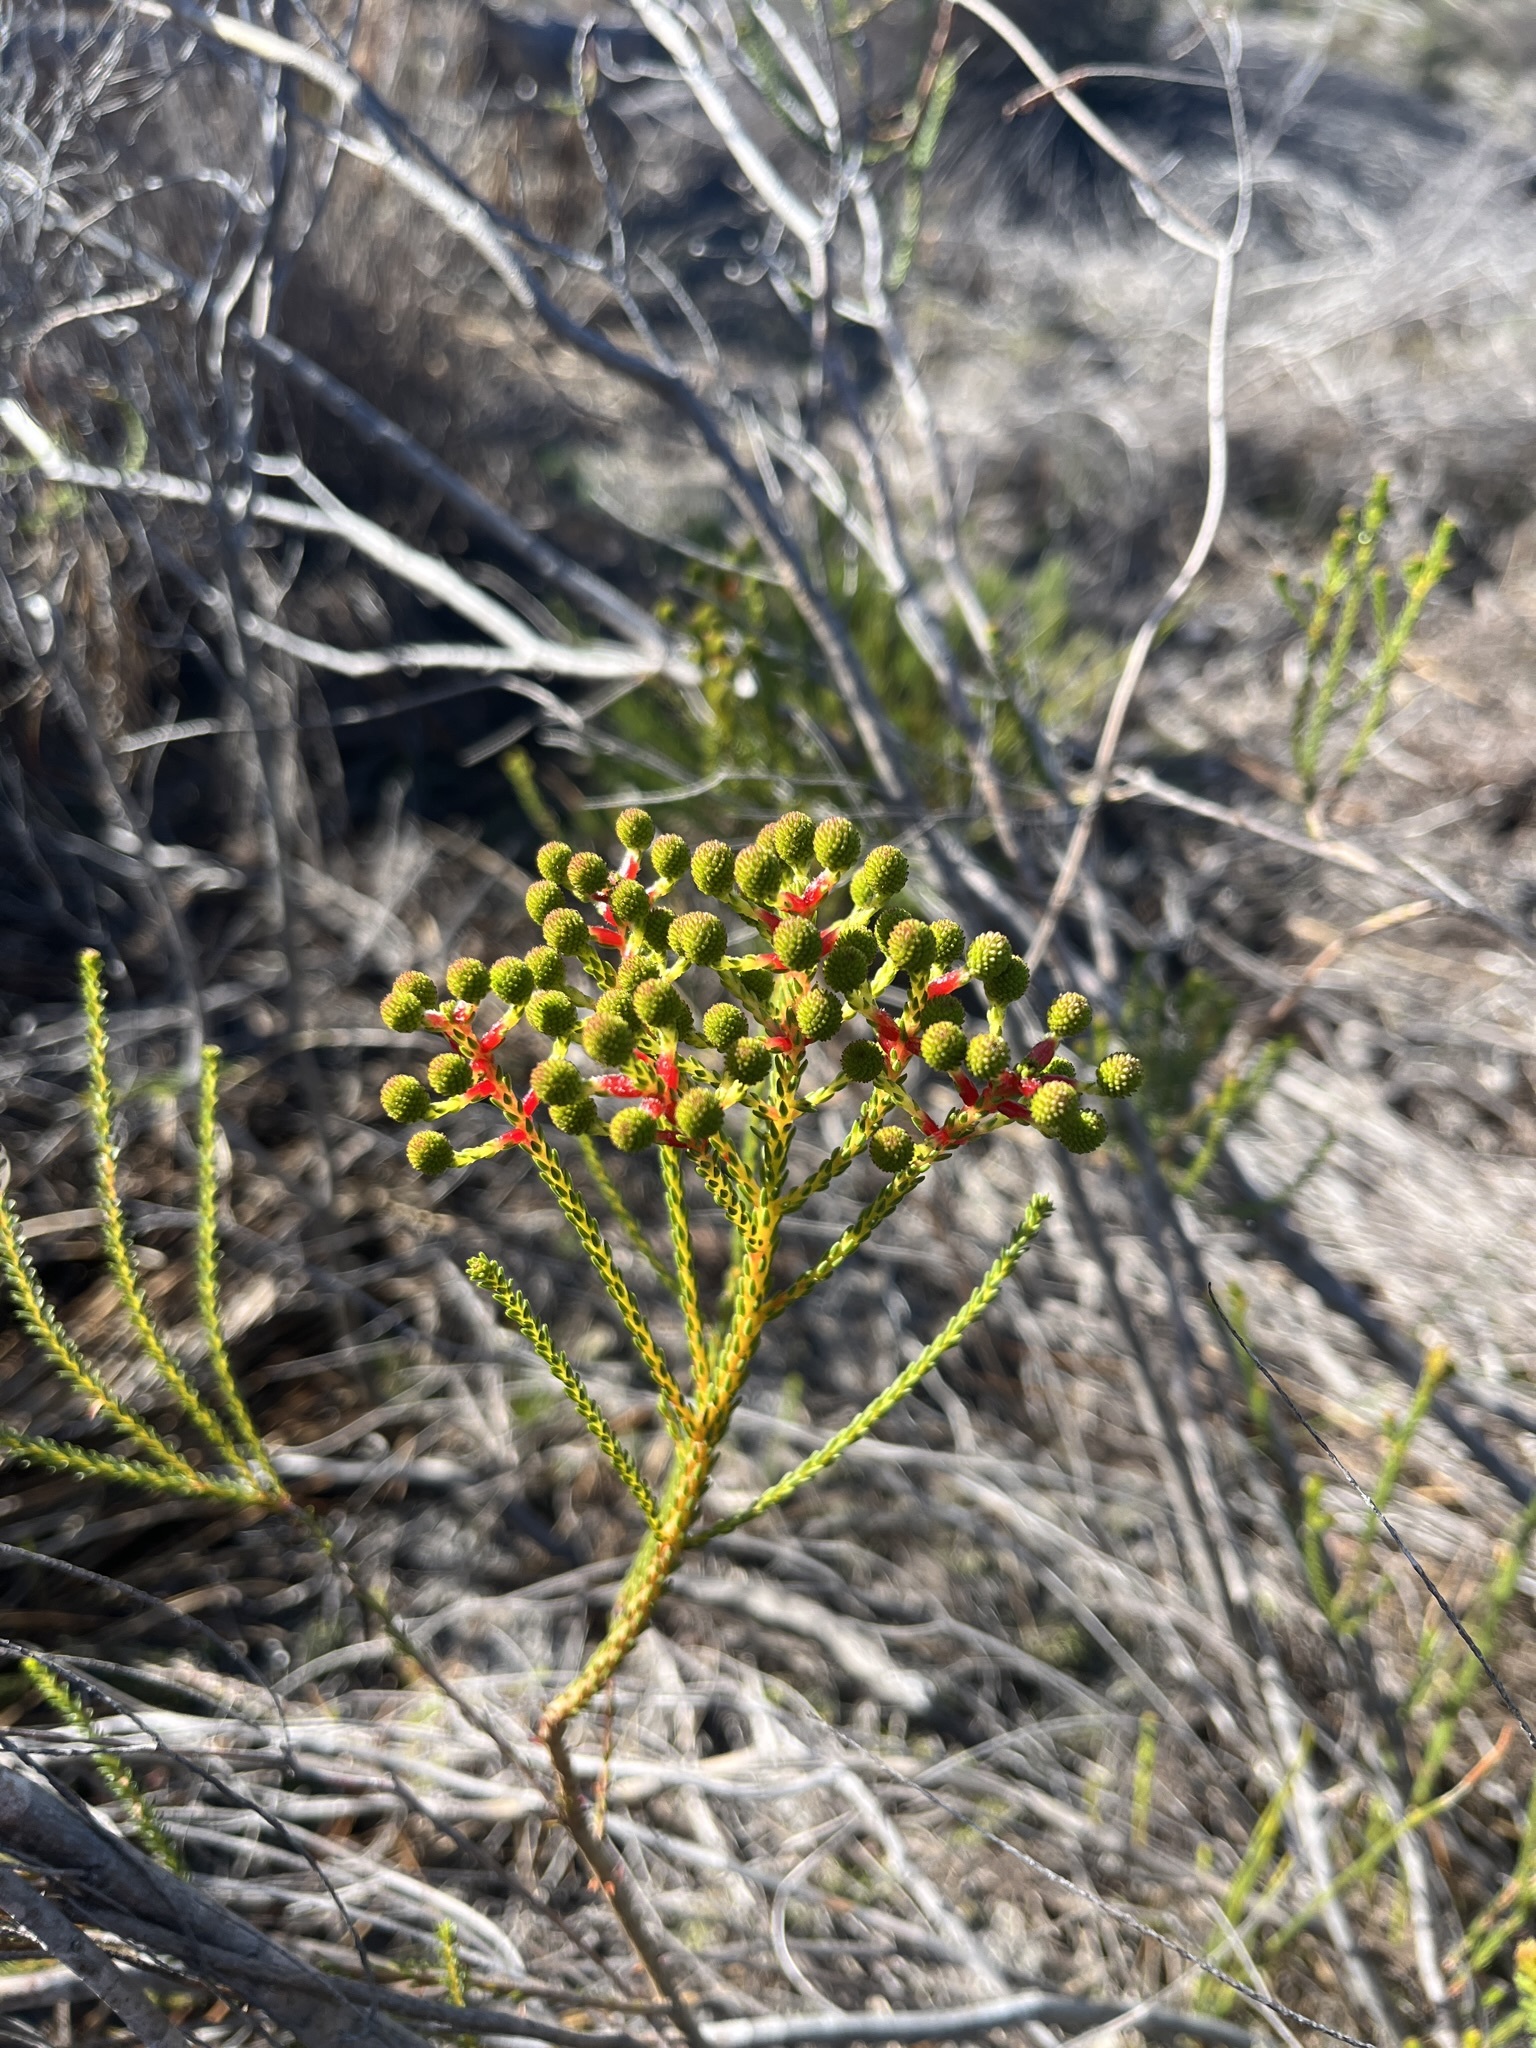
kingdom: Plantae
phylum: Tracheophyta
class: Magnoliopsida
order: Bruniales
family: Bruniaceae
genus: Berzelia
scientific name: Berzelia abrotanoides
